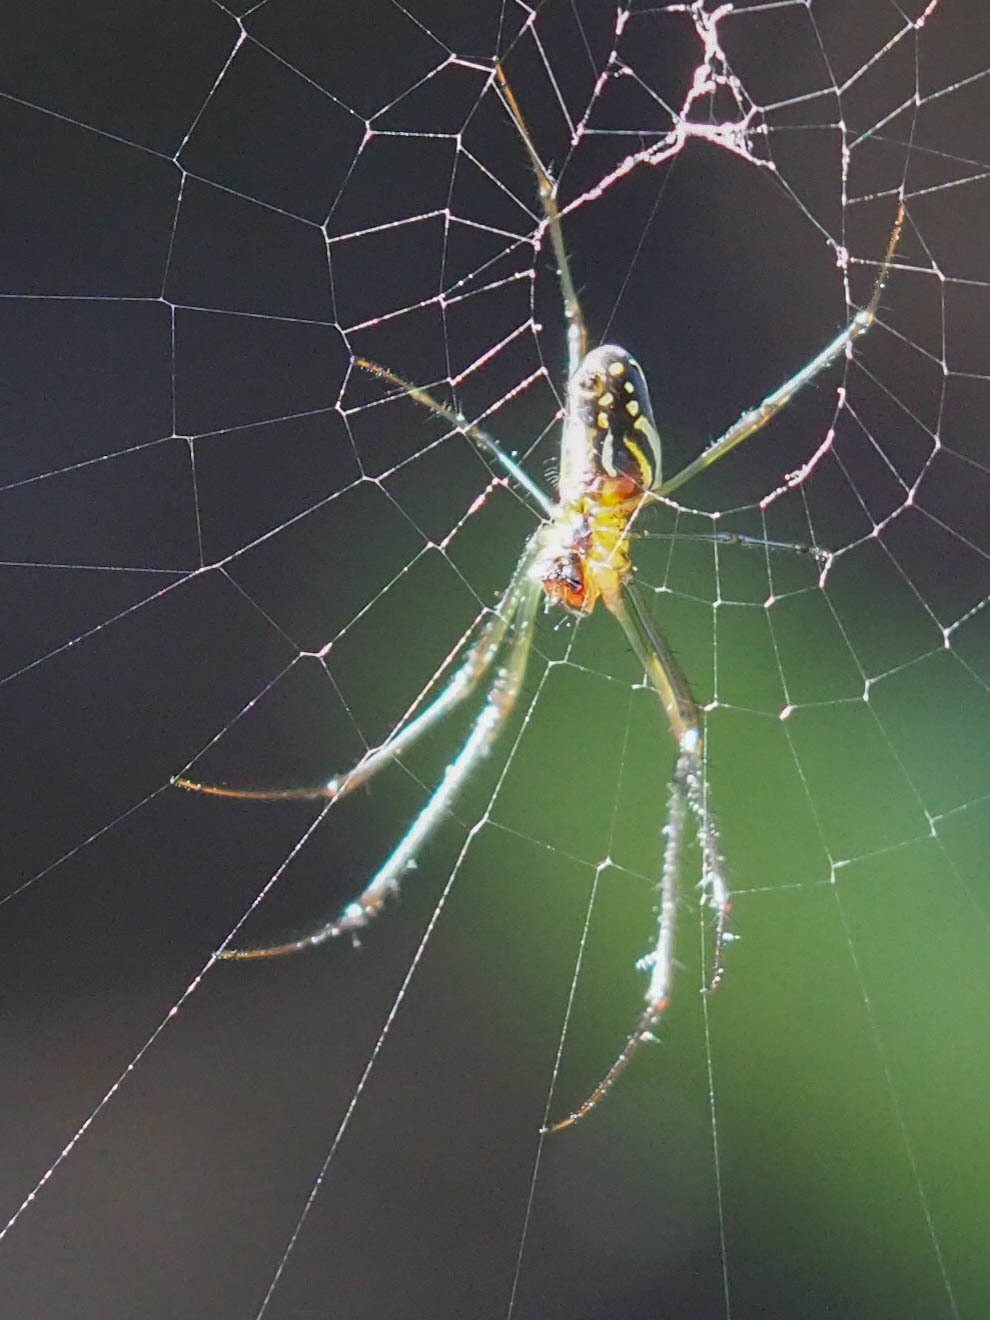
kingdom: Animalia
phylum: Arthropoda
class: Arachnida
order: Araneae
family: Tetragnathidae
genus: Leucauge
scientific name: Leucauge argyra
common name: Longjawed orb weavers
